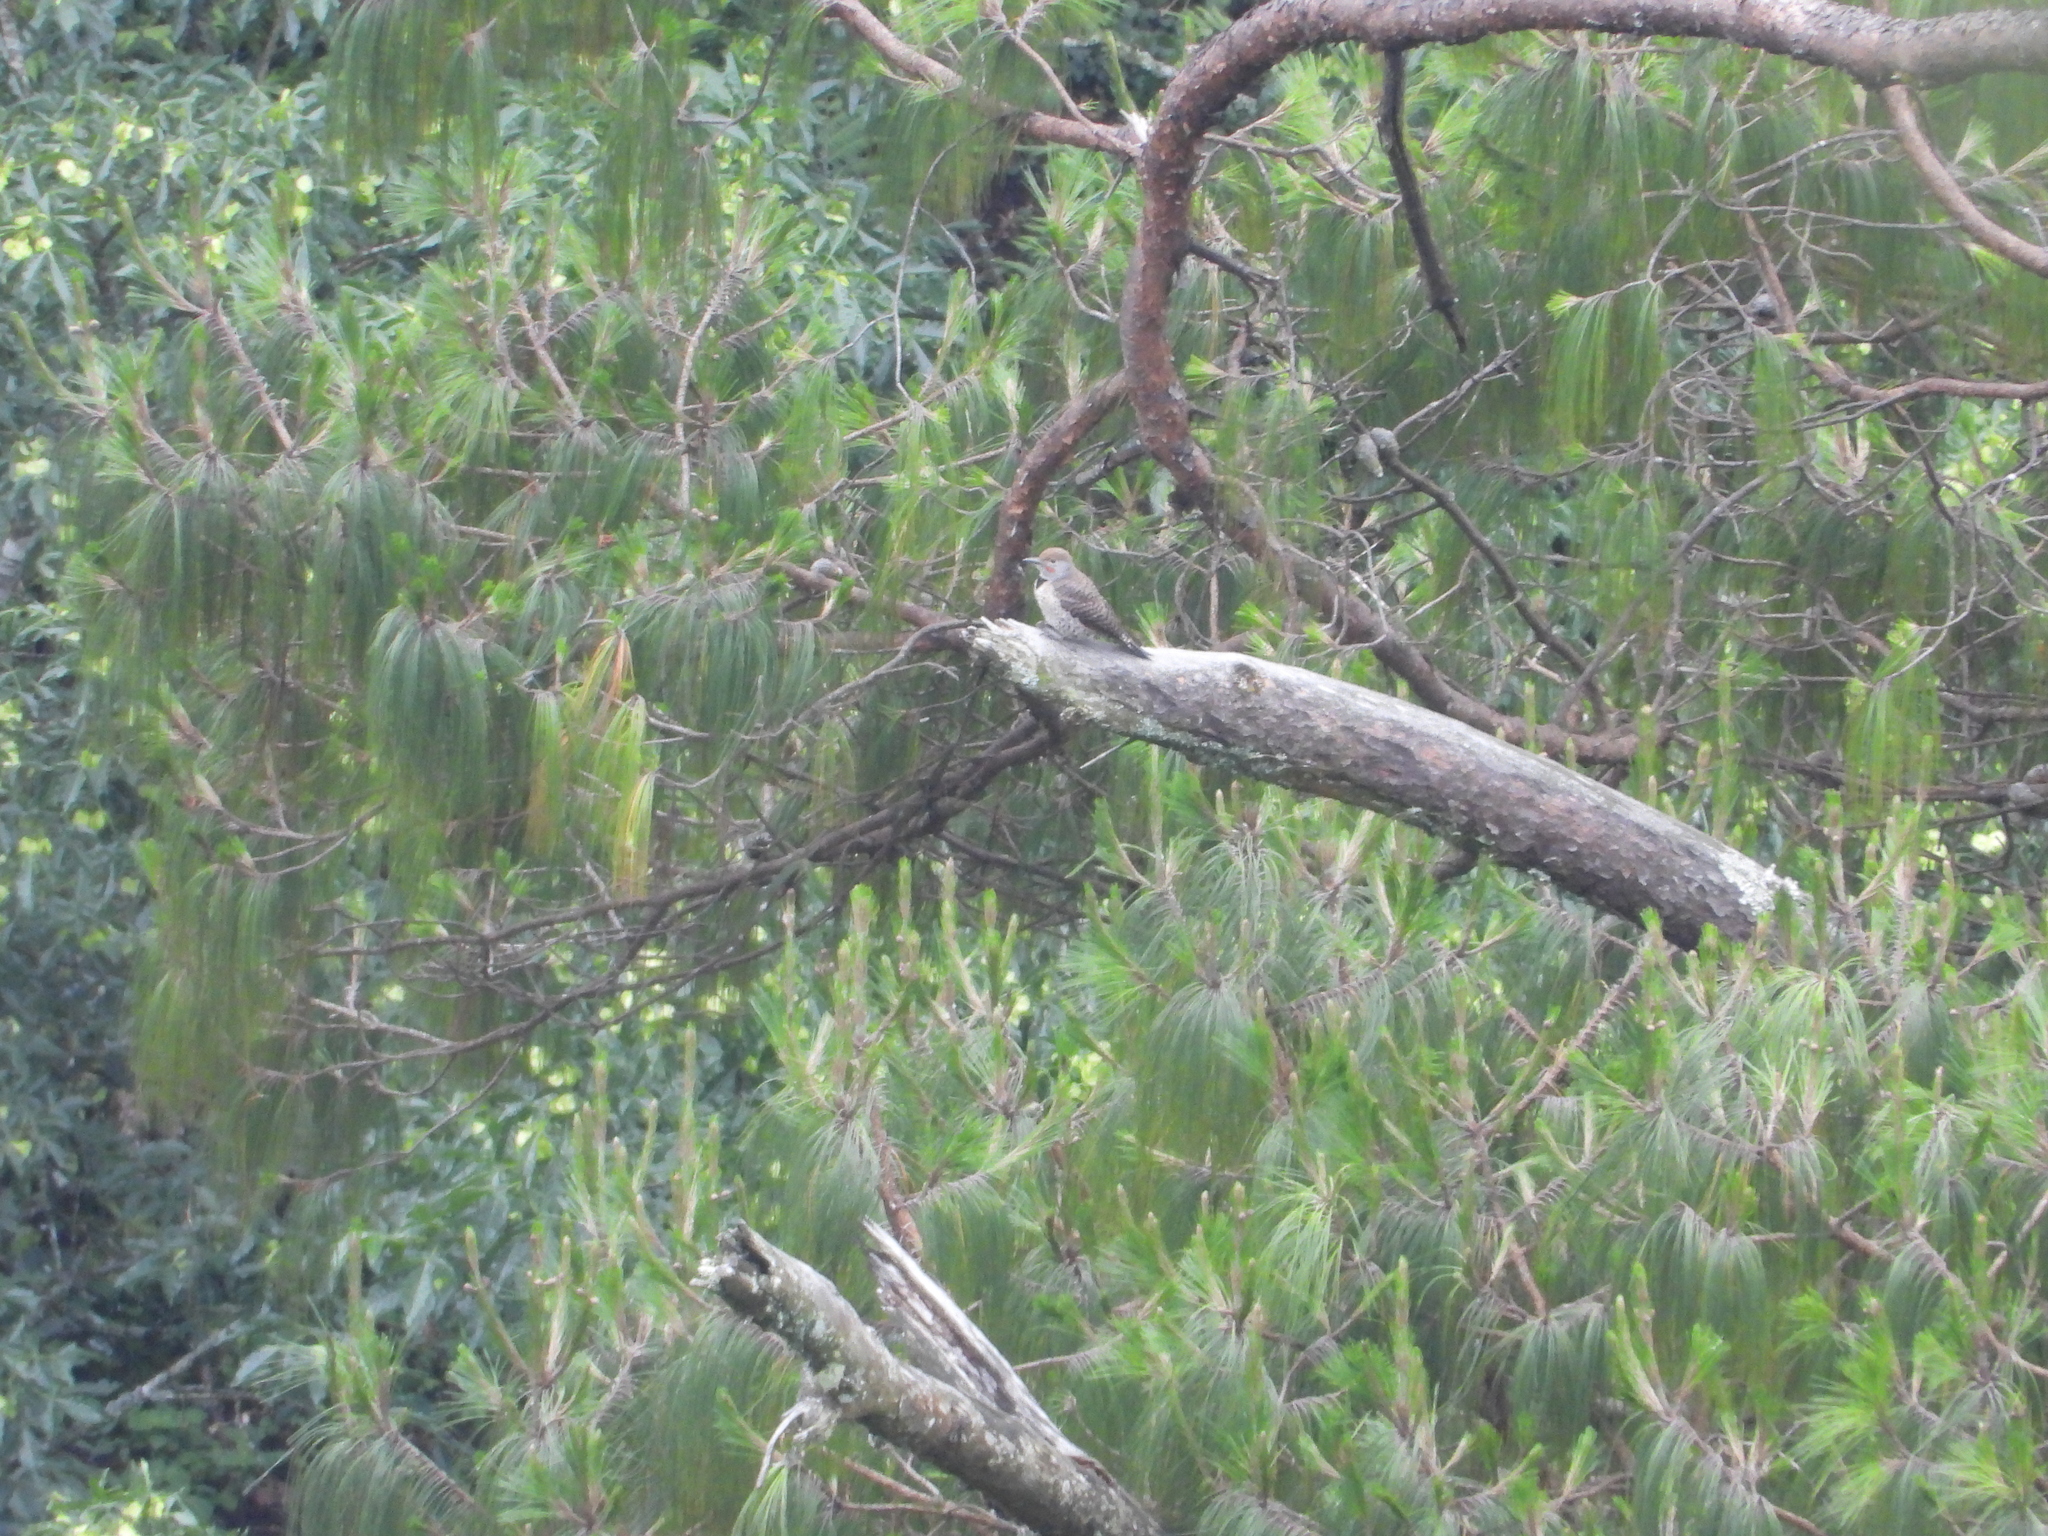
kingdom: Animalia
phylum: Chordata
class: Aves
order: Piciformes
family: Picidae
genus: Colaptes
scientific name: Colaptes auratus
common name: Northern flicker
